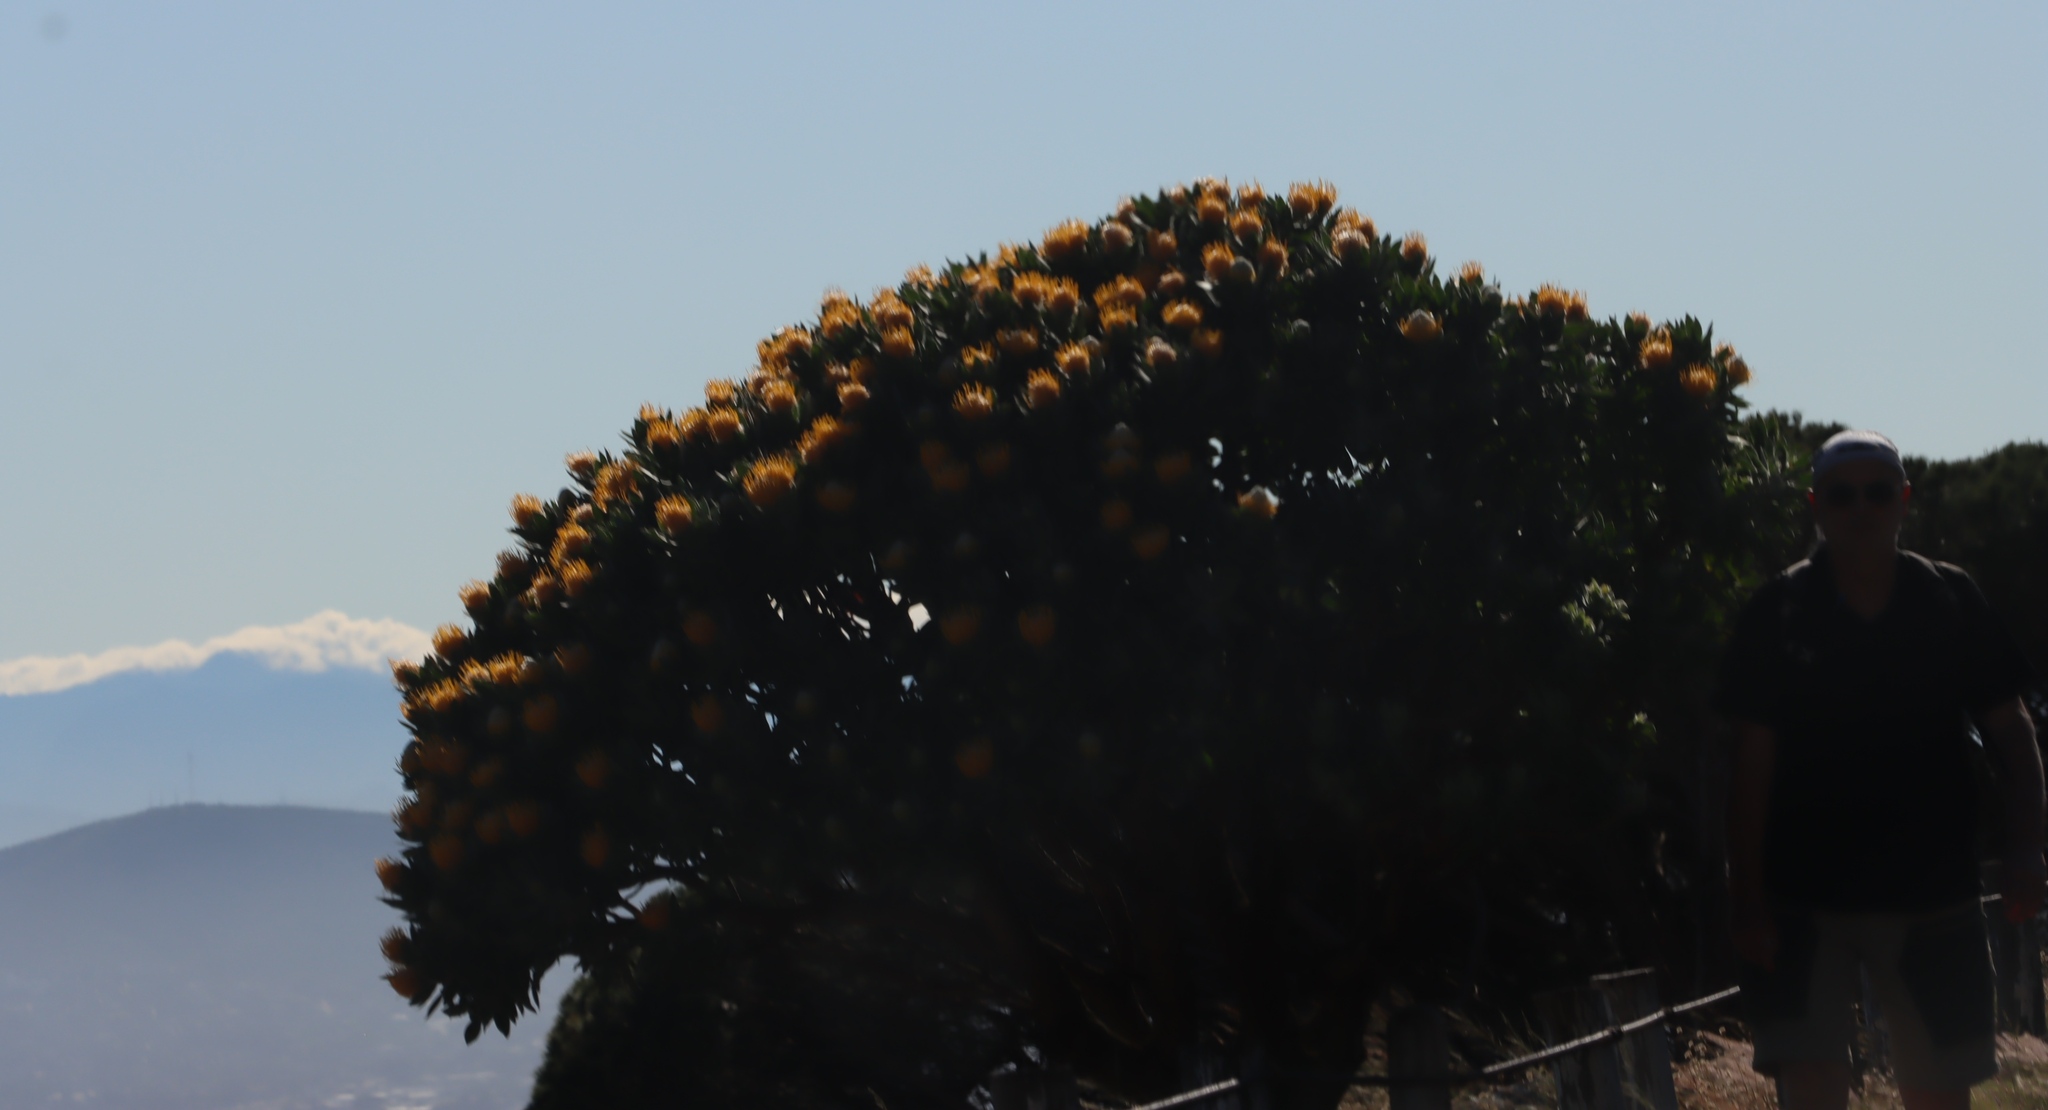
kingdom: Plantae
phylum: Tracheophyta
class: Magnoliopsida
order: Proteales
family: Proteaceae
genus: Leucospermum
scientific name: Leucospermum conocarpodendron
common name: Tree pincushion
